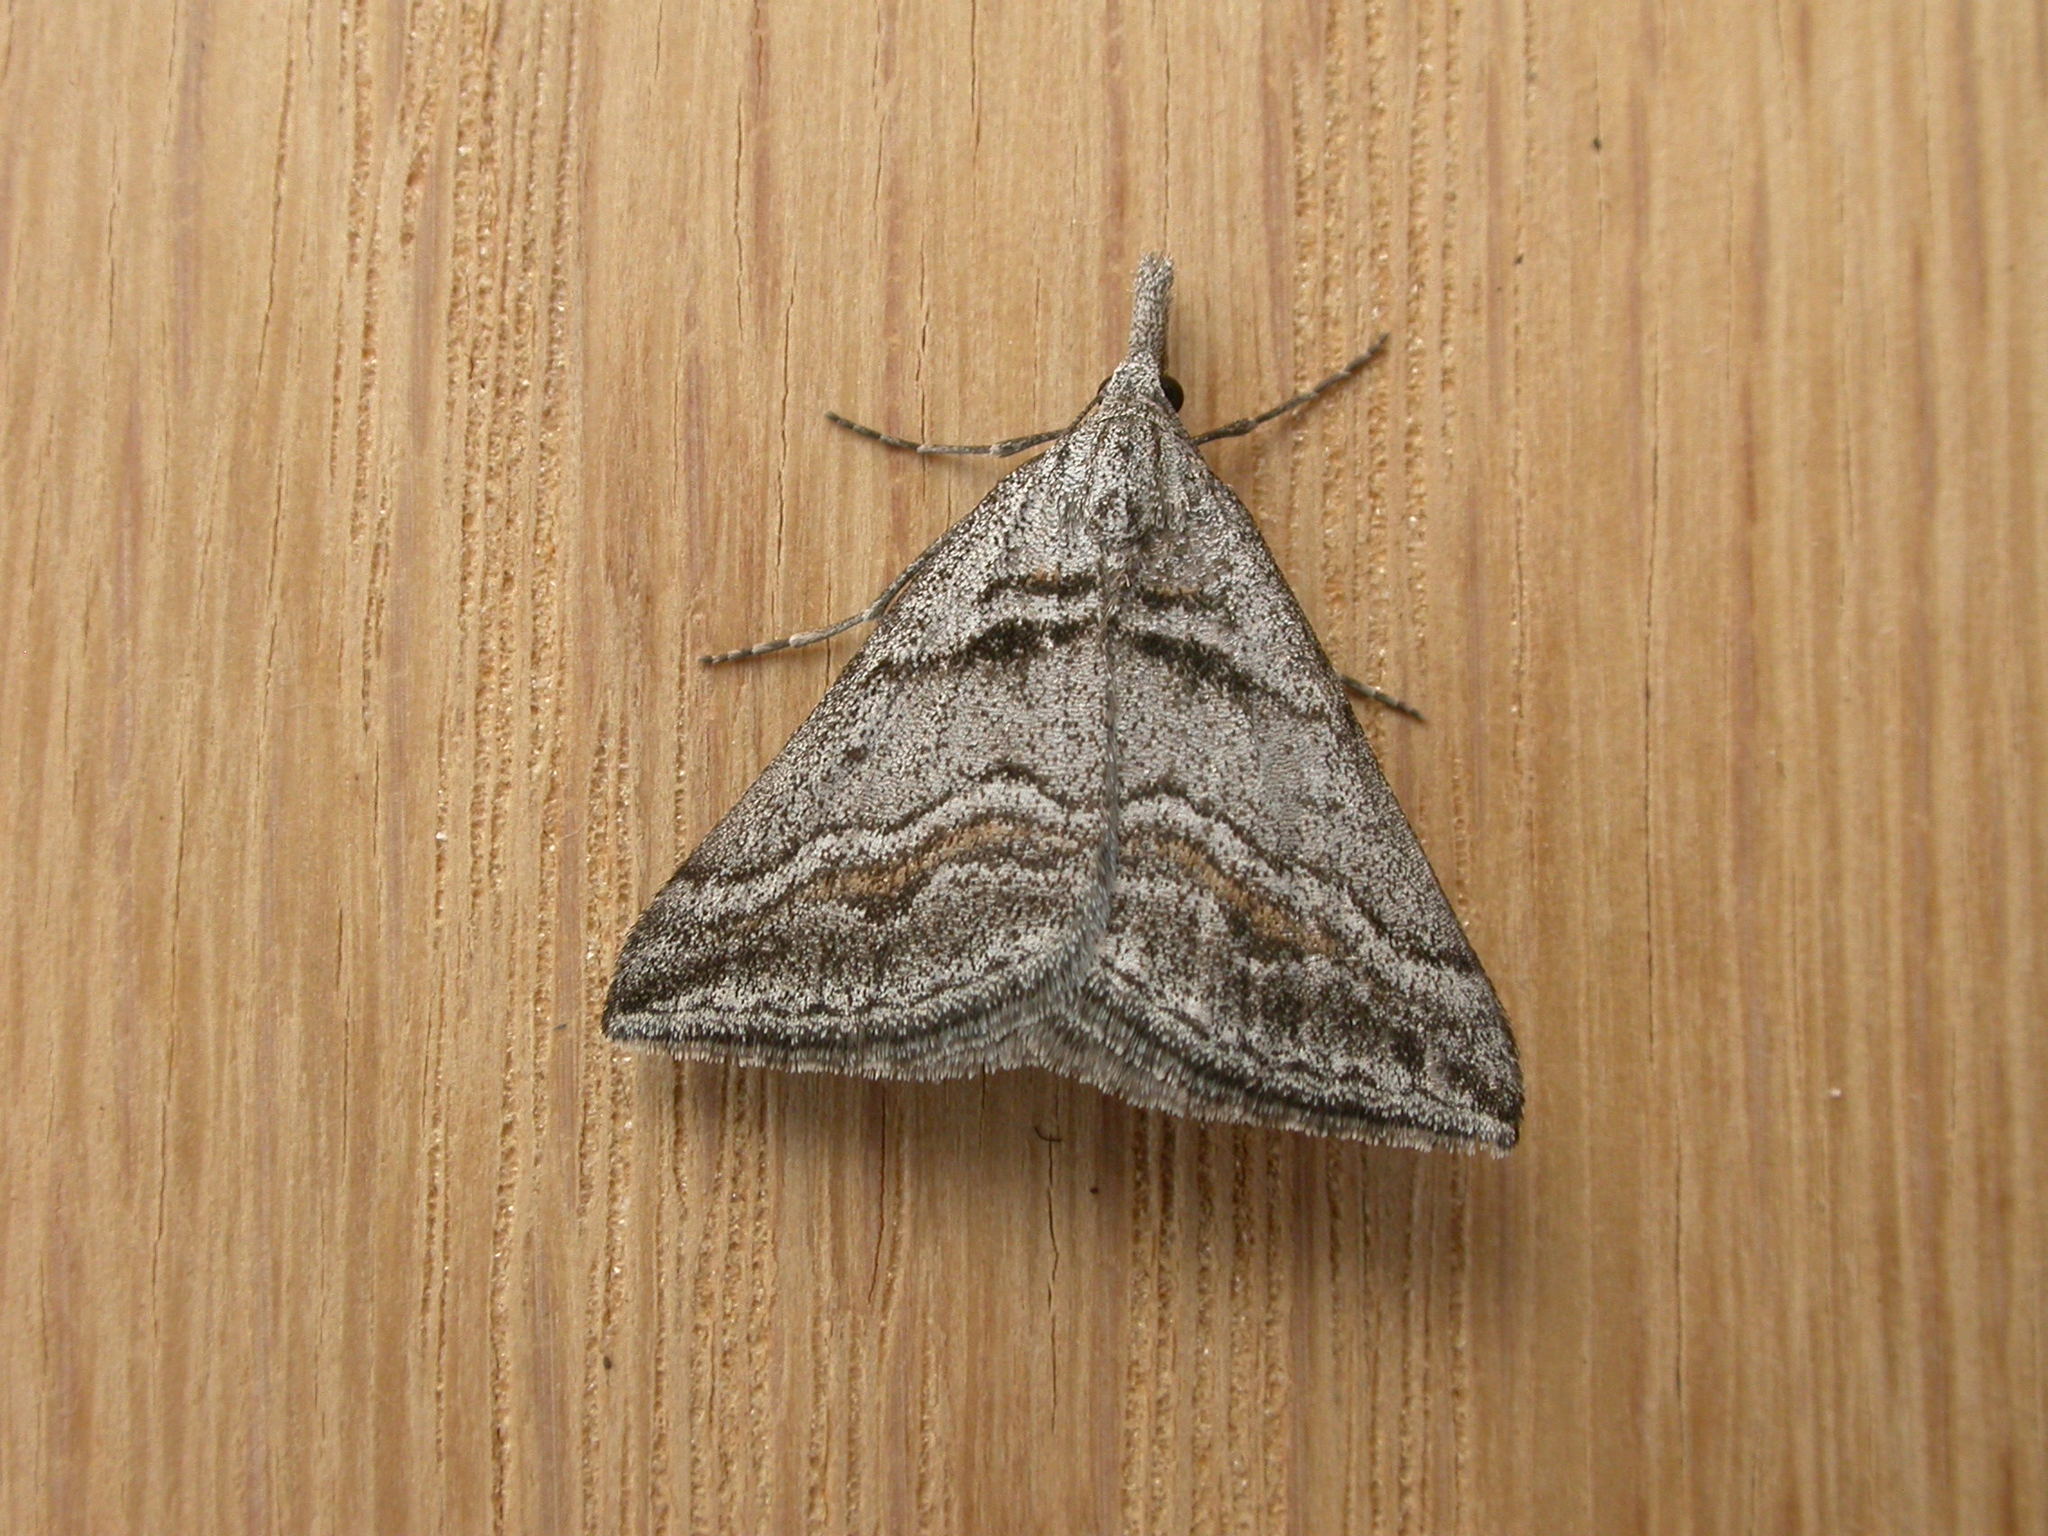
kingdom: Animalia
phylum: Arthropoda
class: Insecta
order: Lepidoptera
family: Geometridae
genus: Dichromodes
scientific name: Dichromodes consignata
